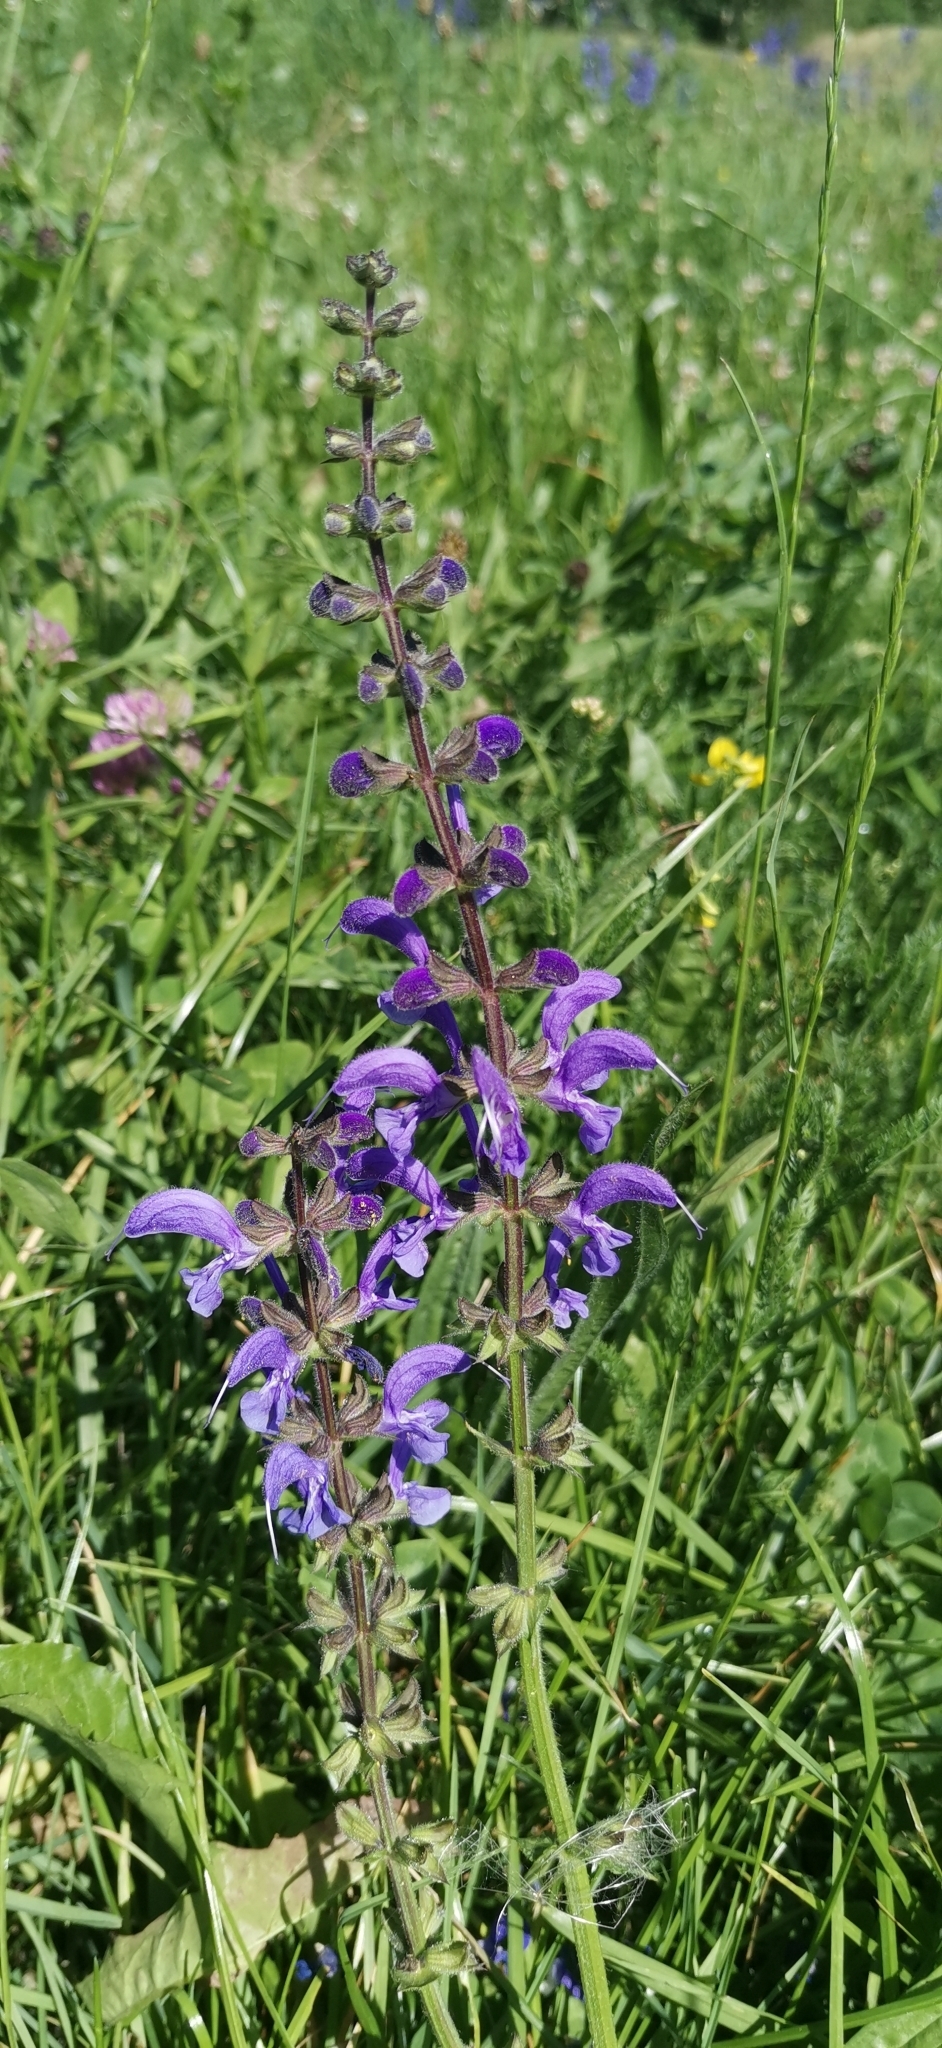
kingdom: Plantae
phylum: Tracheophyta
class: Magnoliopsida
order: Lamiales
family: Lamiaceae
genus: Salvia
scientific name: Salvia pratensis
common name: Meadow sage
